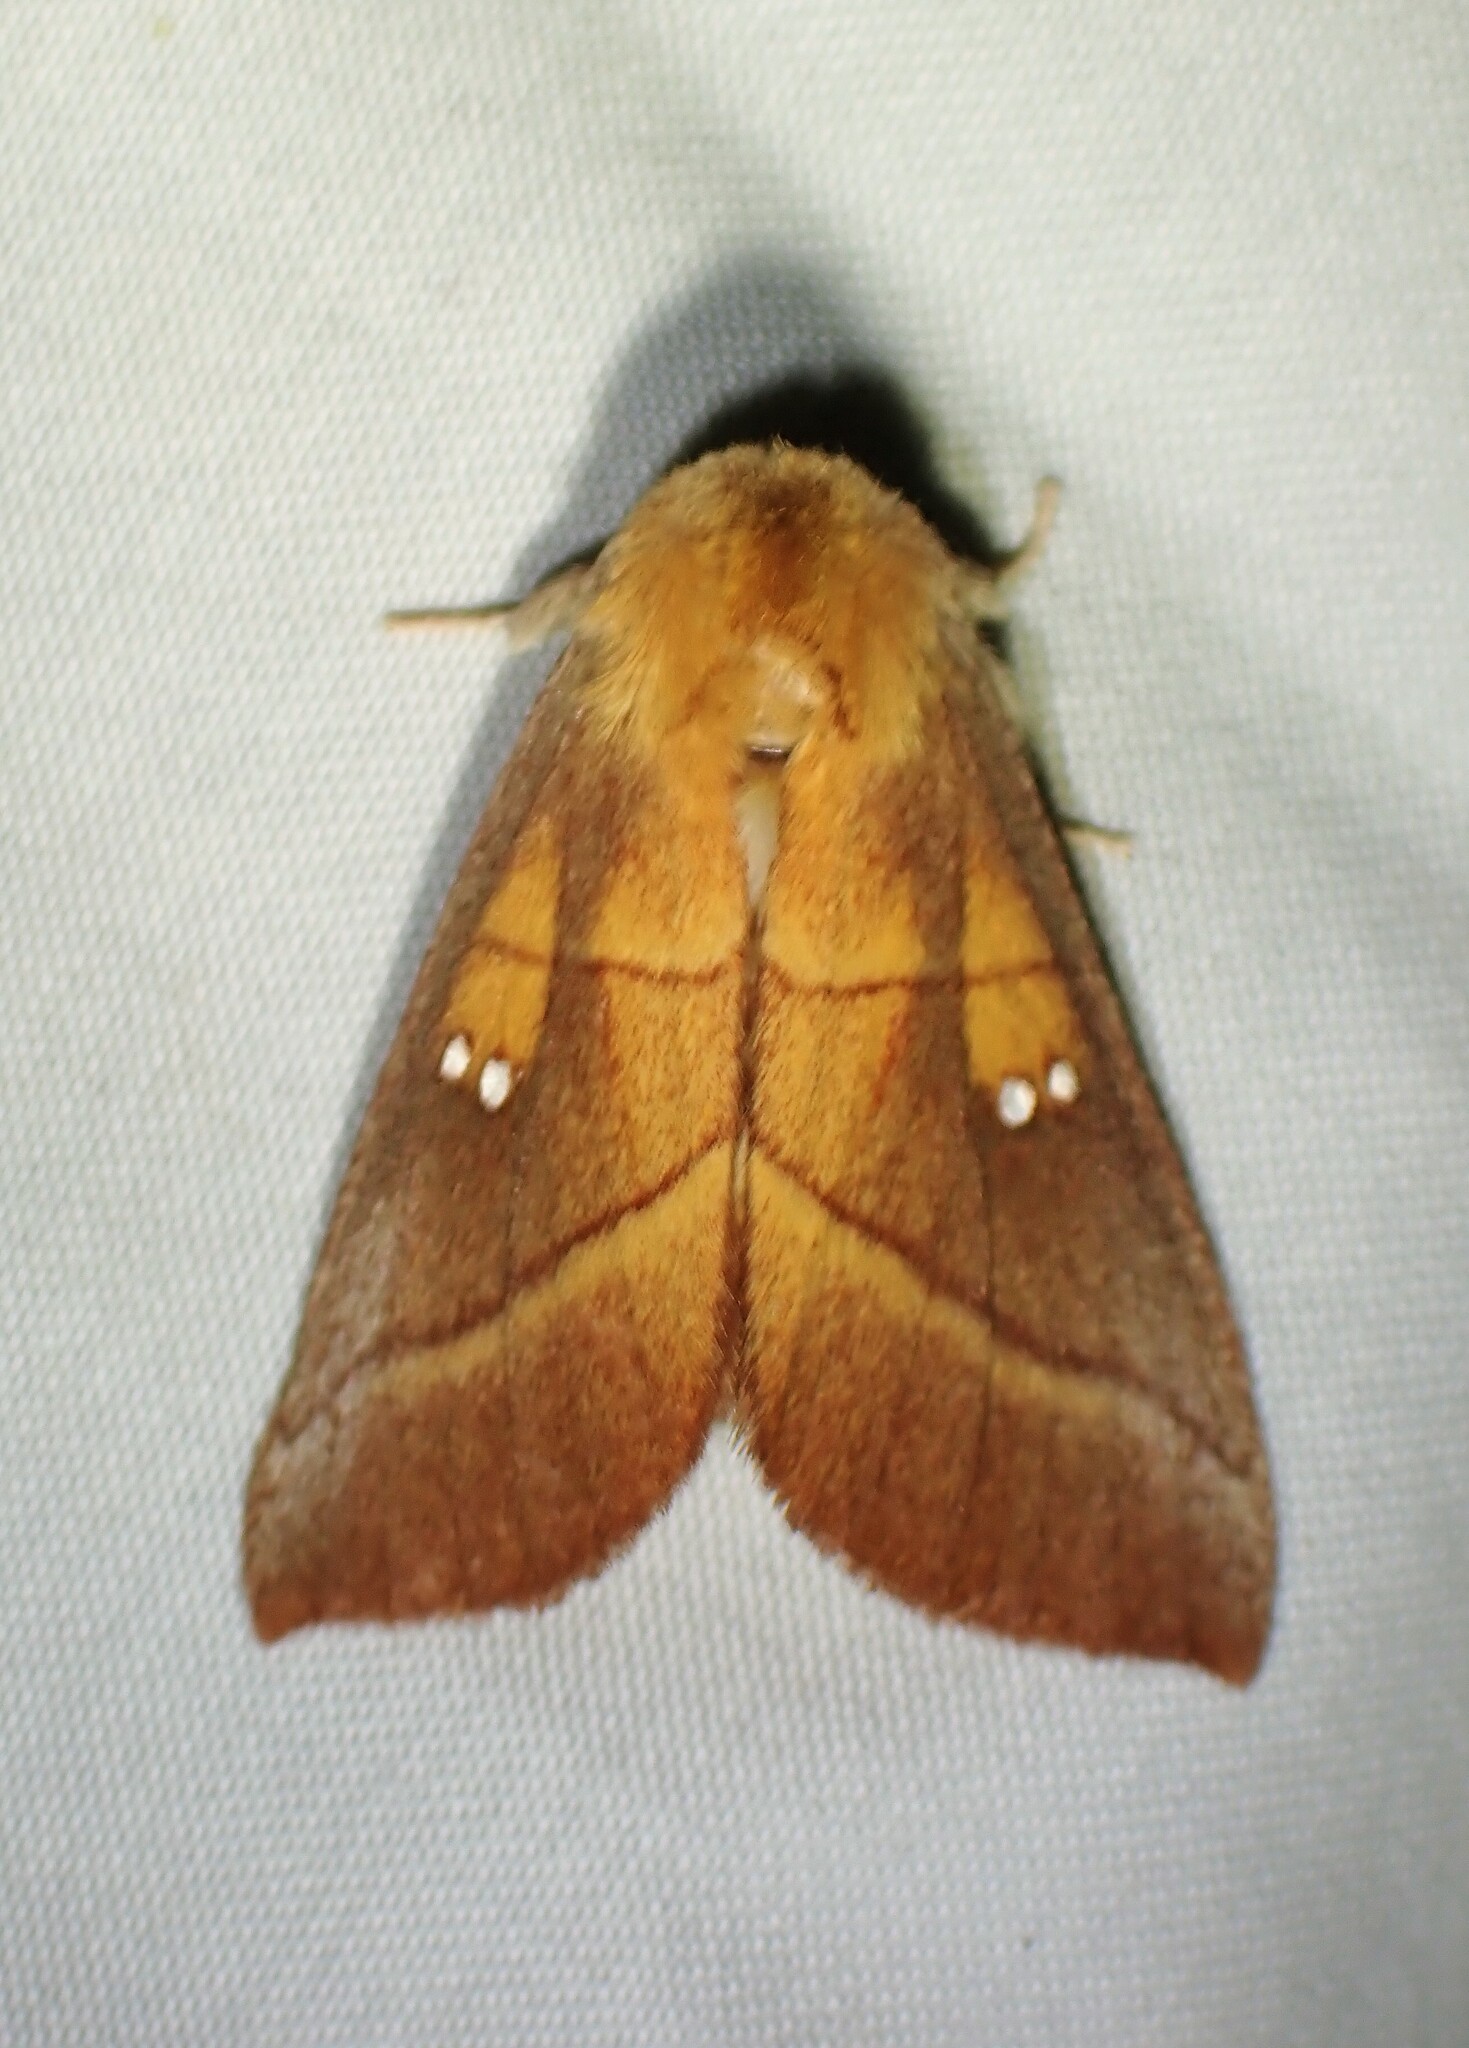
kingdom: Animalia
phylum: Arthropoda
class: Insecta
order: Lepidoptera
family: Notodontidae
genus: Nadata
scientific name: Nadata gibbosa
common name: White-dotted prominent
